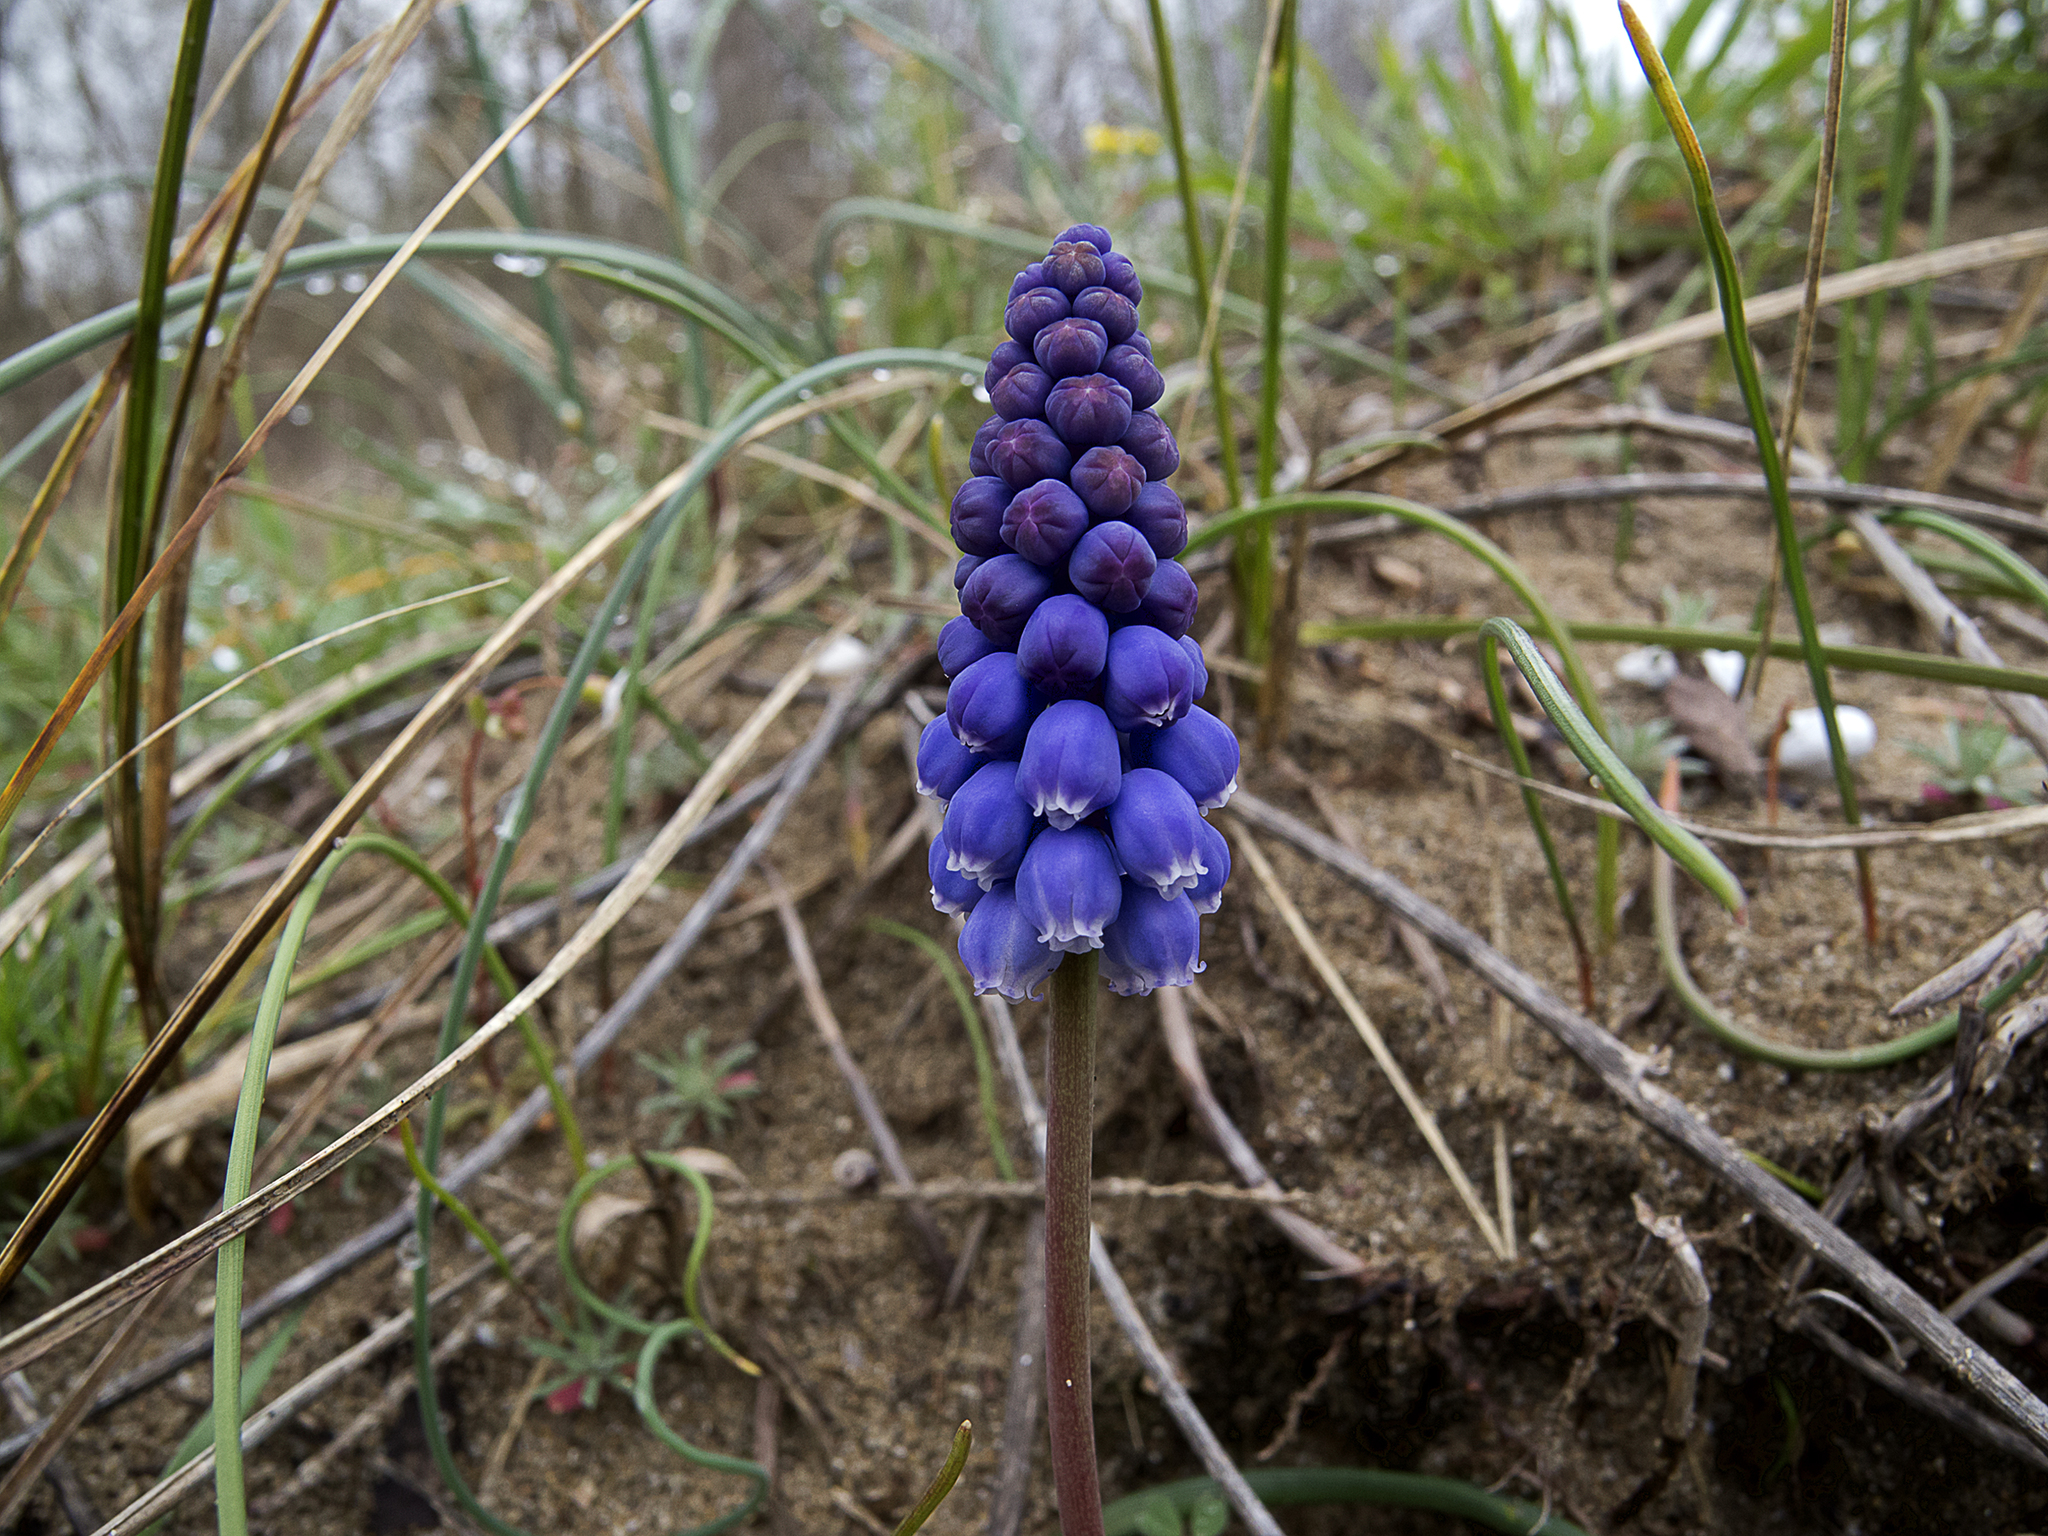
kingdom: Plantae
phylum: Tracheophyta
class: Liliopsida
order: Asparagales
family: Asparagaceae
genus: Muscari
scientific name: Muscari neglectum
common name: Grape-hyacinth
